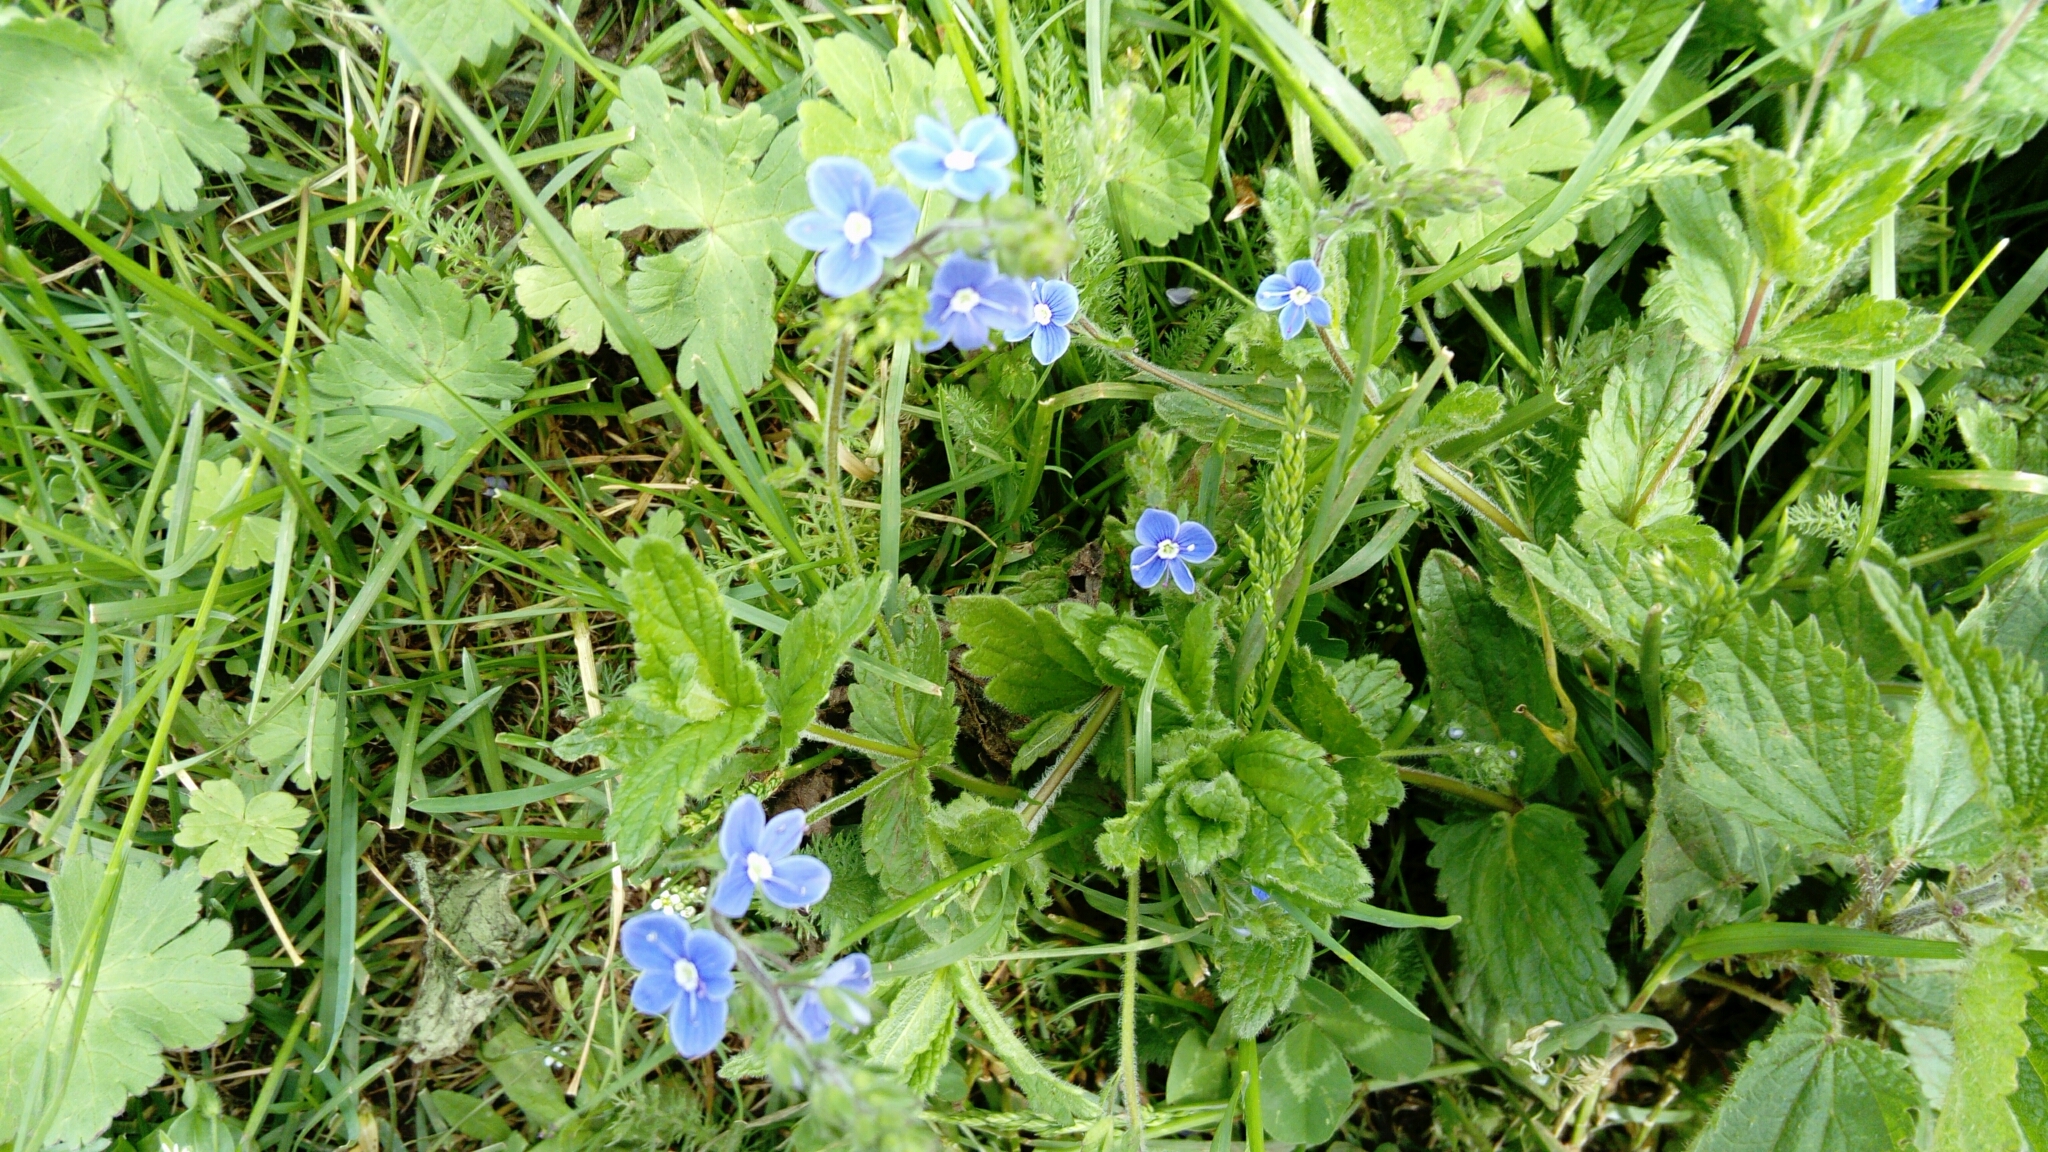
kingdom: Plantae
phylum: Tracheophyta
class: Magnoliopsida
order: Lamiales
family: Plantaginaceae
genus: Veronica
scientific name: Veronica chamaedrys
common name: Germander speedwell
